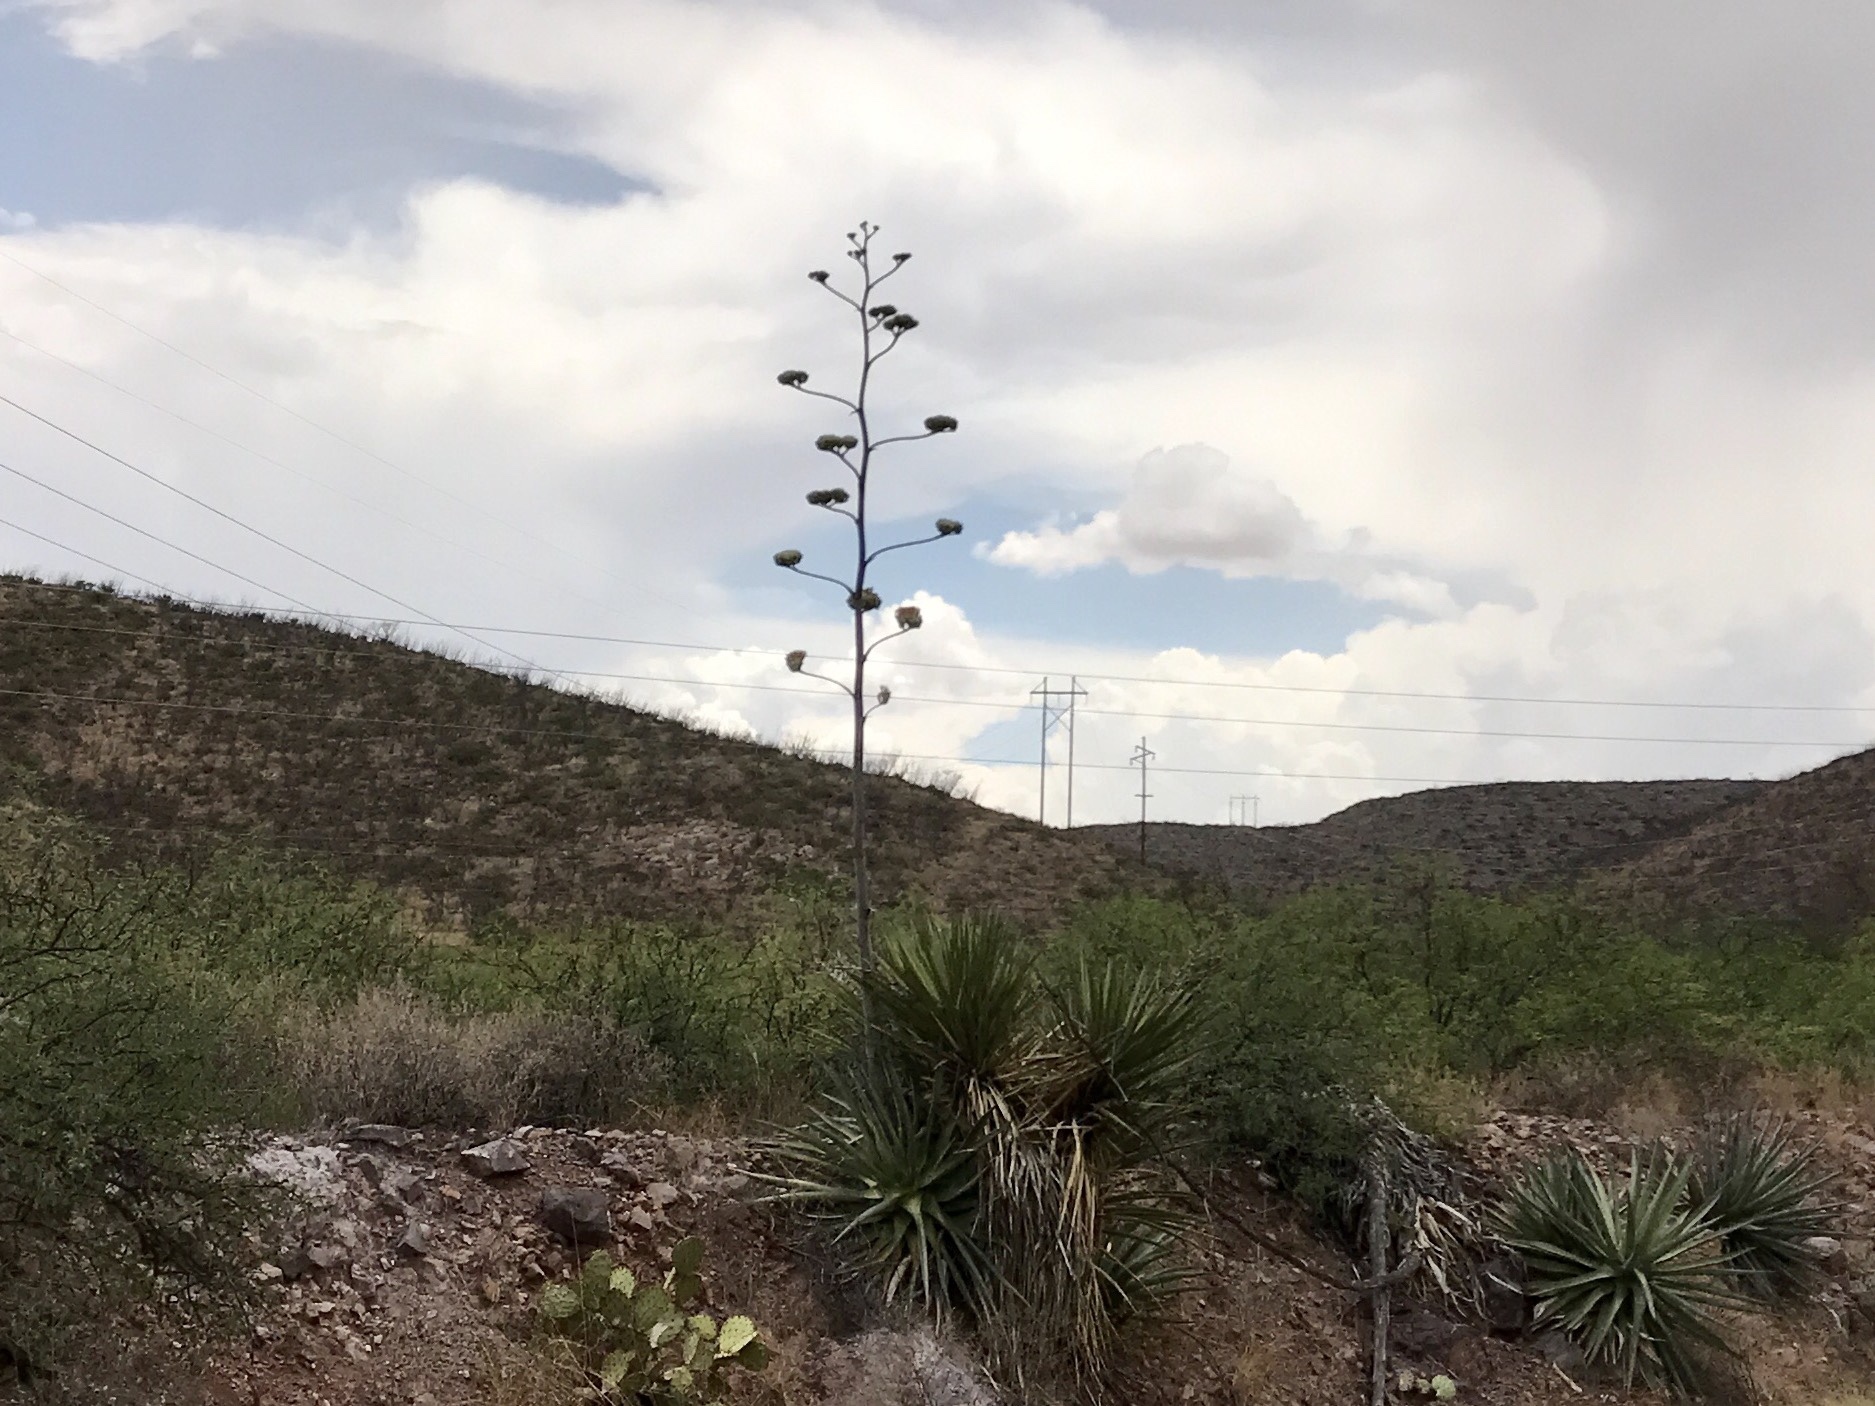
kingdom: Plantae
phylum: Tracheophyta
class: Liliopsida
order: Asparagales
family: Asparagaceae
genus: Agave
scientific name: Agave palmeri
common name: Palmer agave
